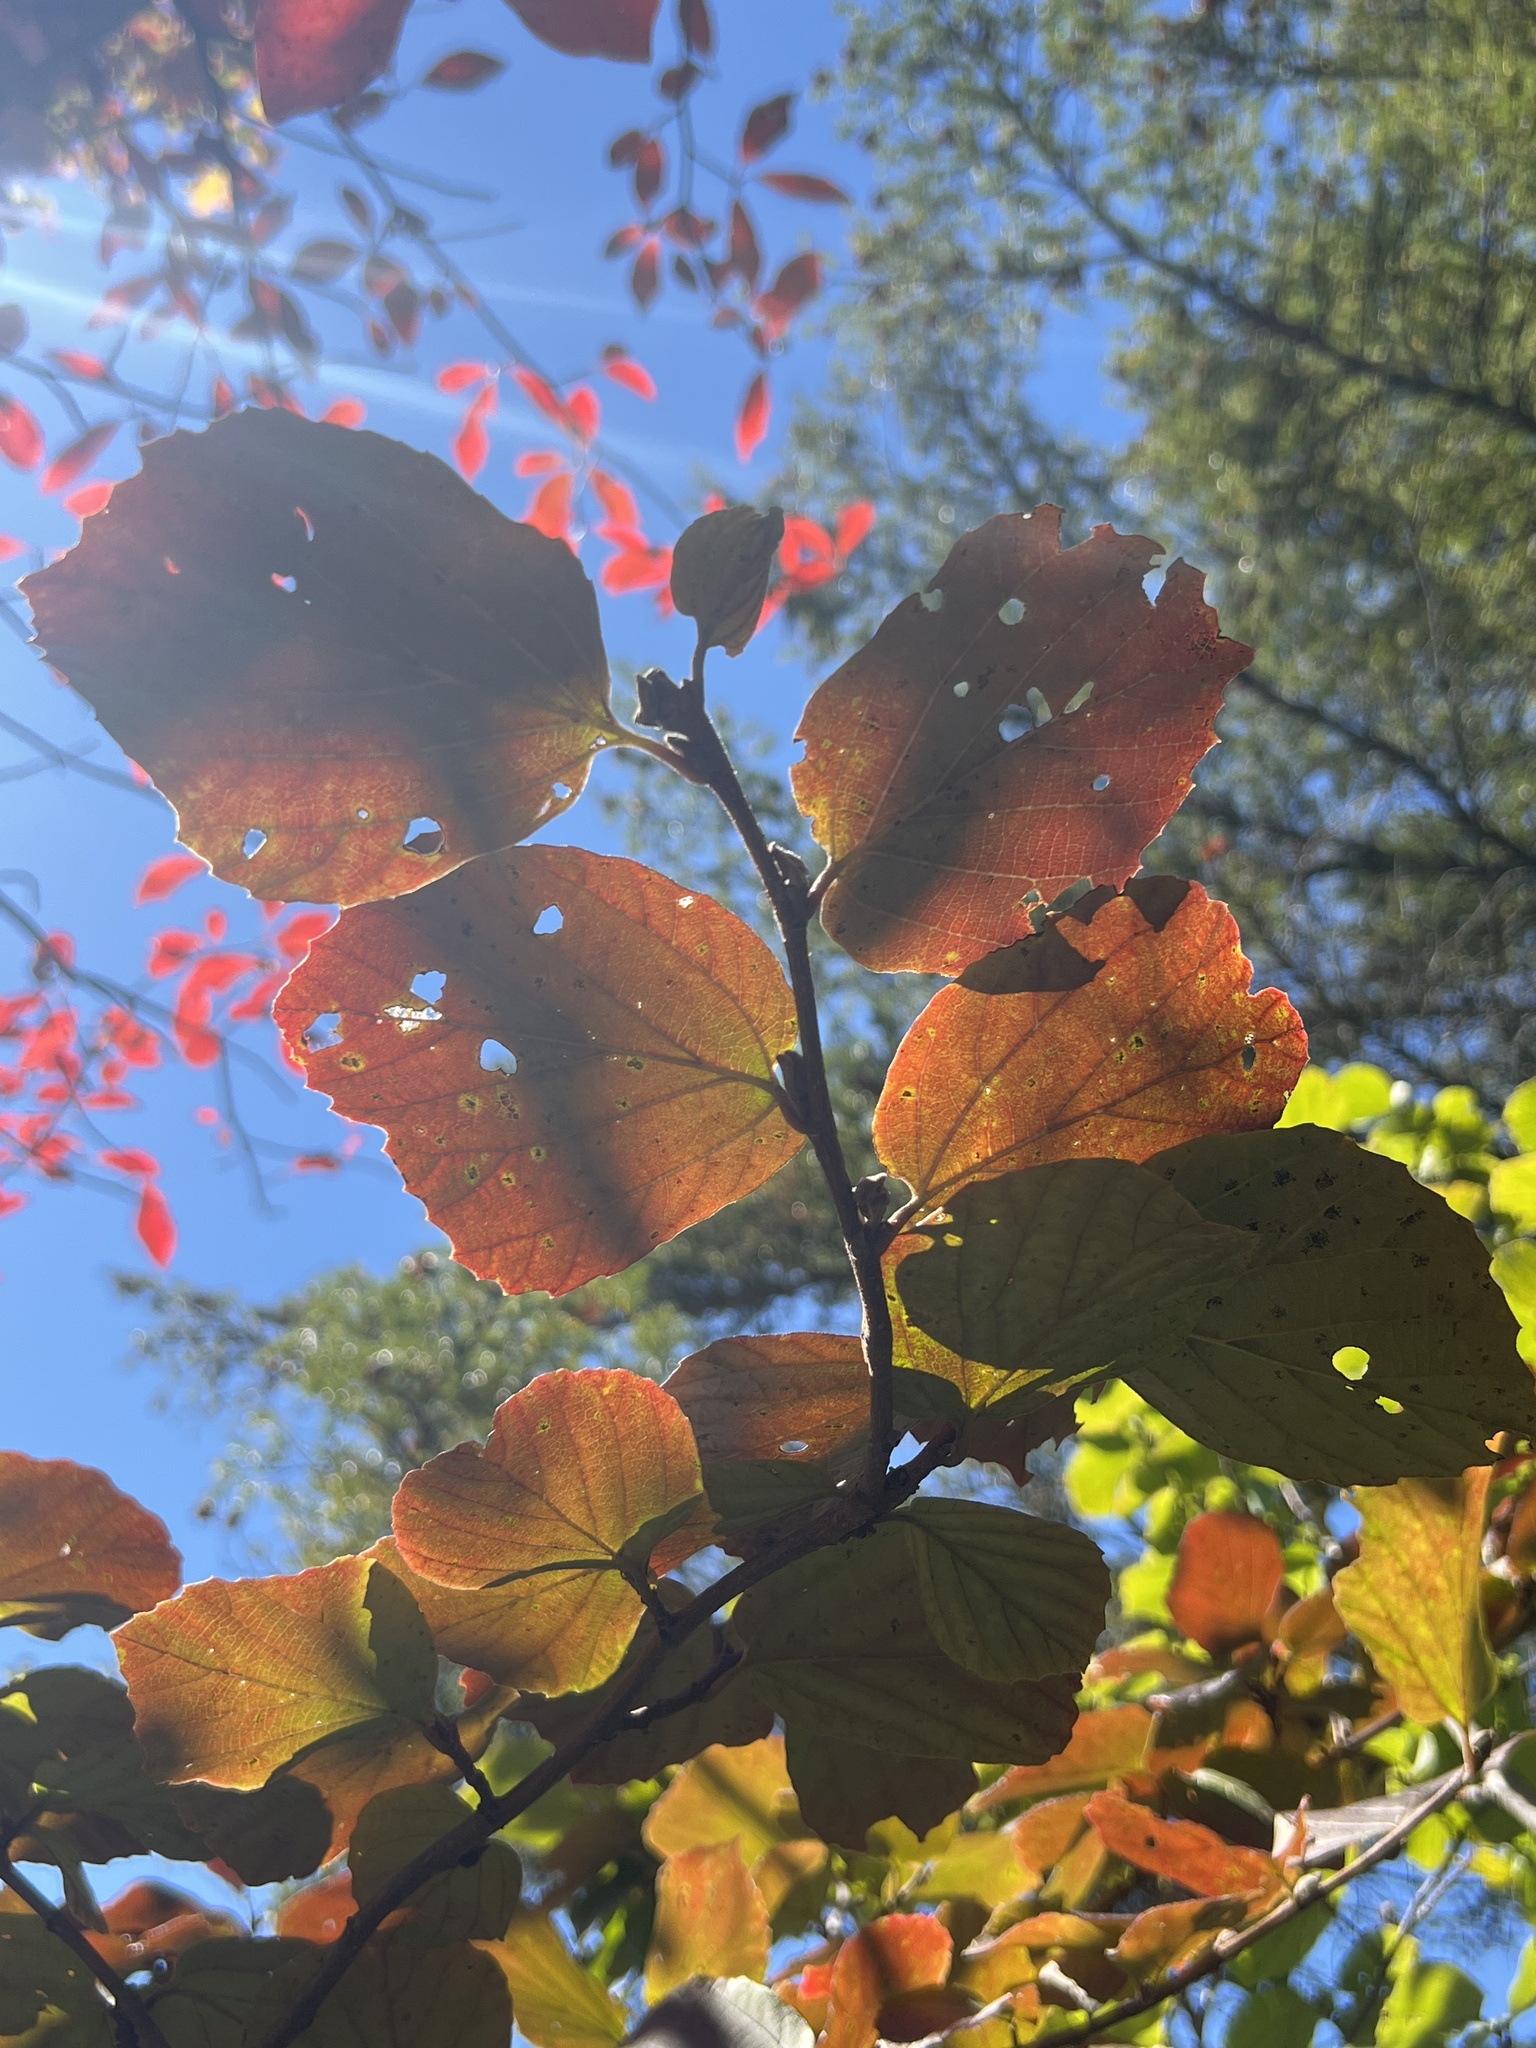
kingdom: Plantae
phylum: Tracheophyta
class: Magnoliopsida
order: Saxifragales
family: Hamamelidaceae
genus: Fothergilla
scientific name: Fothergilla latifolia
